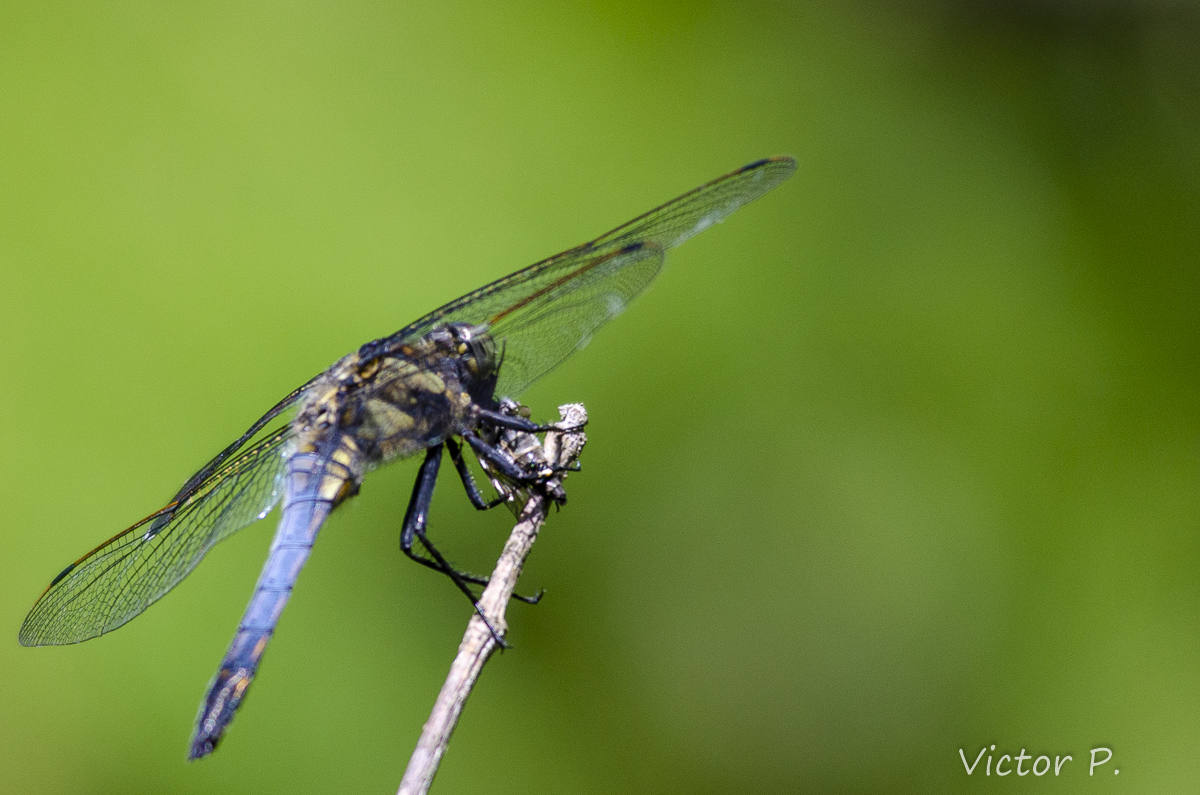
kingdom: Animalia
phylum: Arthropoda
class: Insecta
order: Odonata
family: Libellulidae
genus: Orthetrum
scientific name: Orthetrum cancellatum
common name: Black-tailed skimmer
